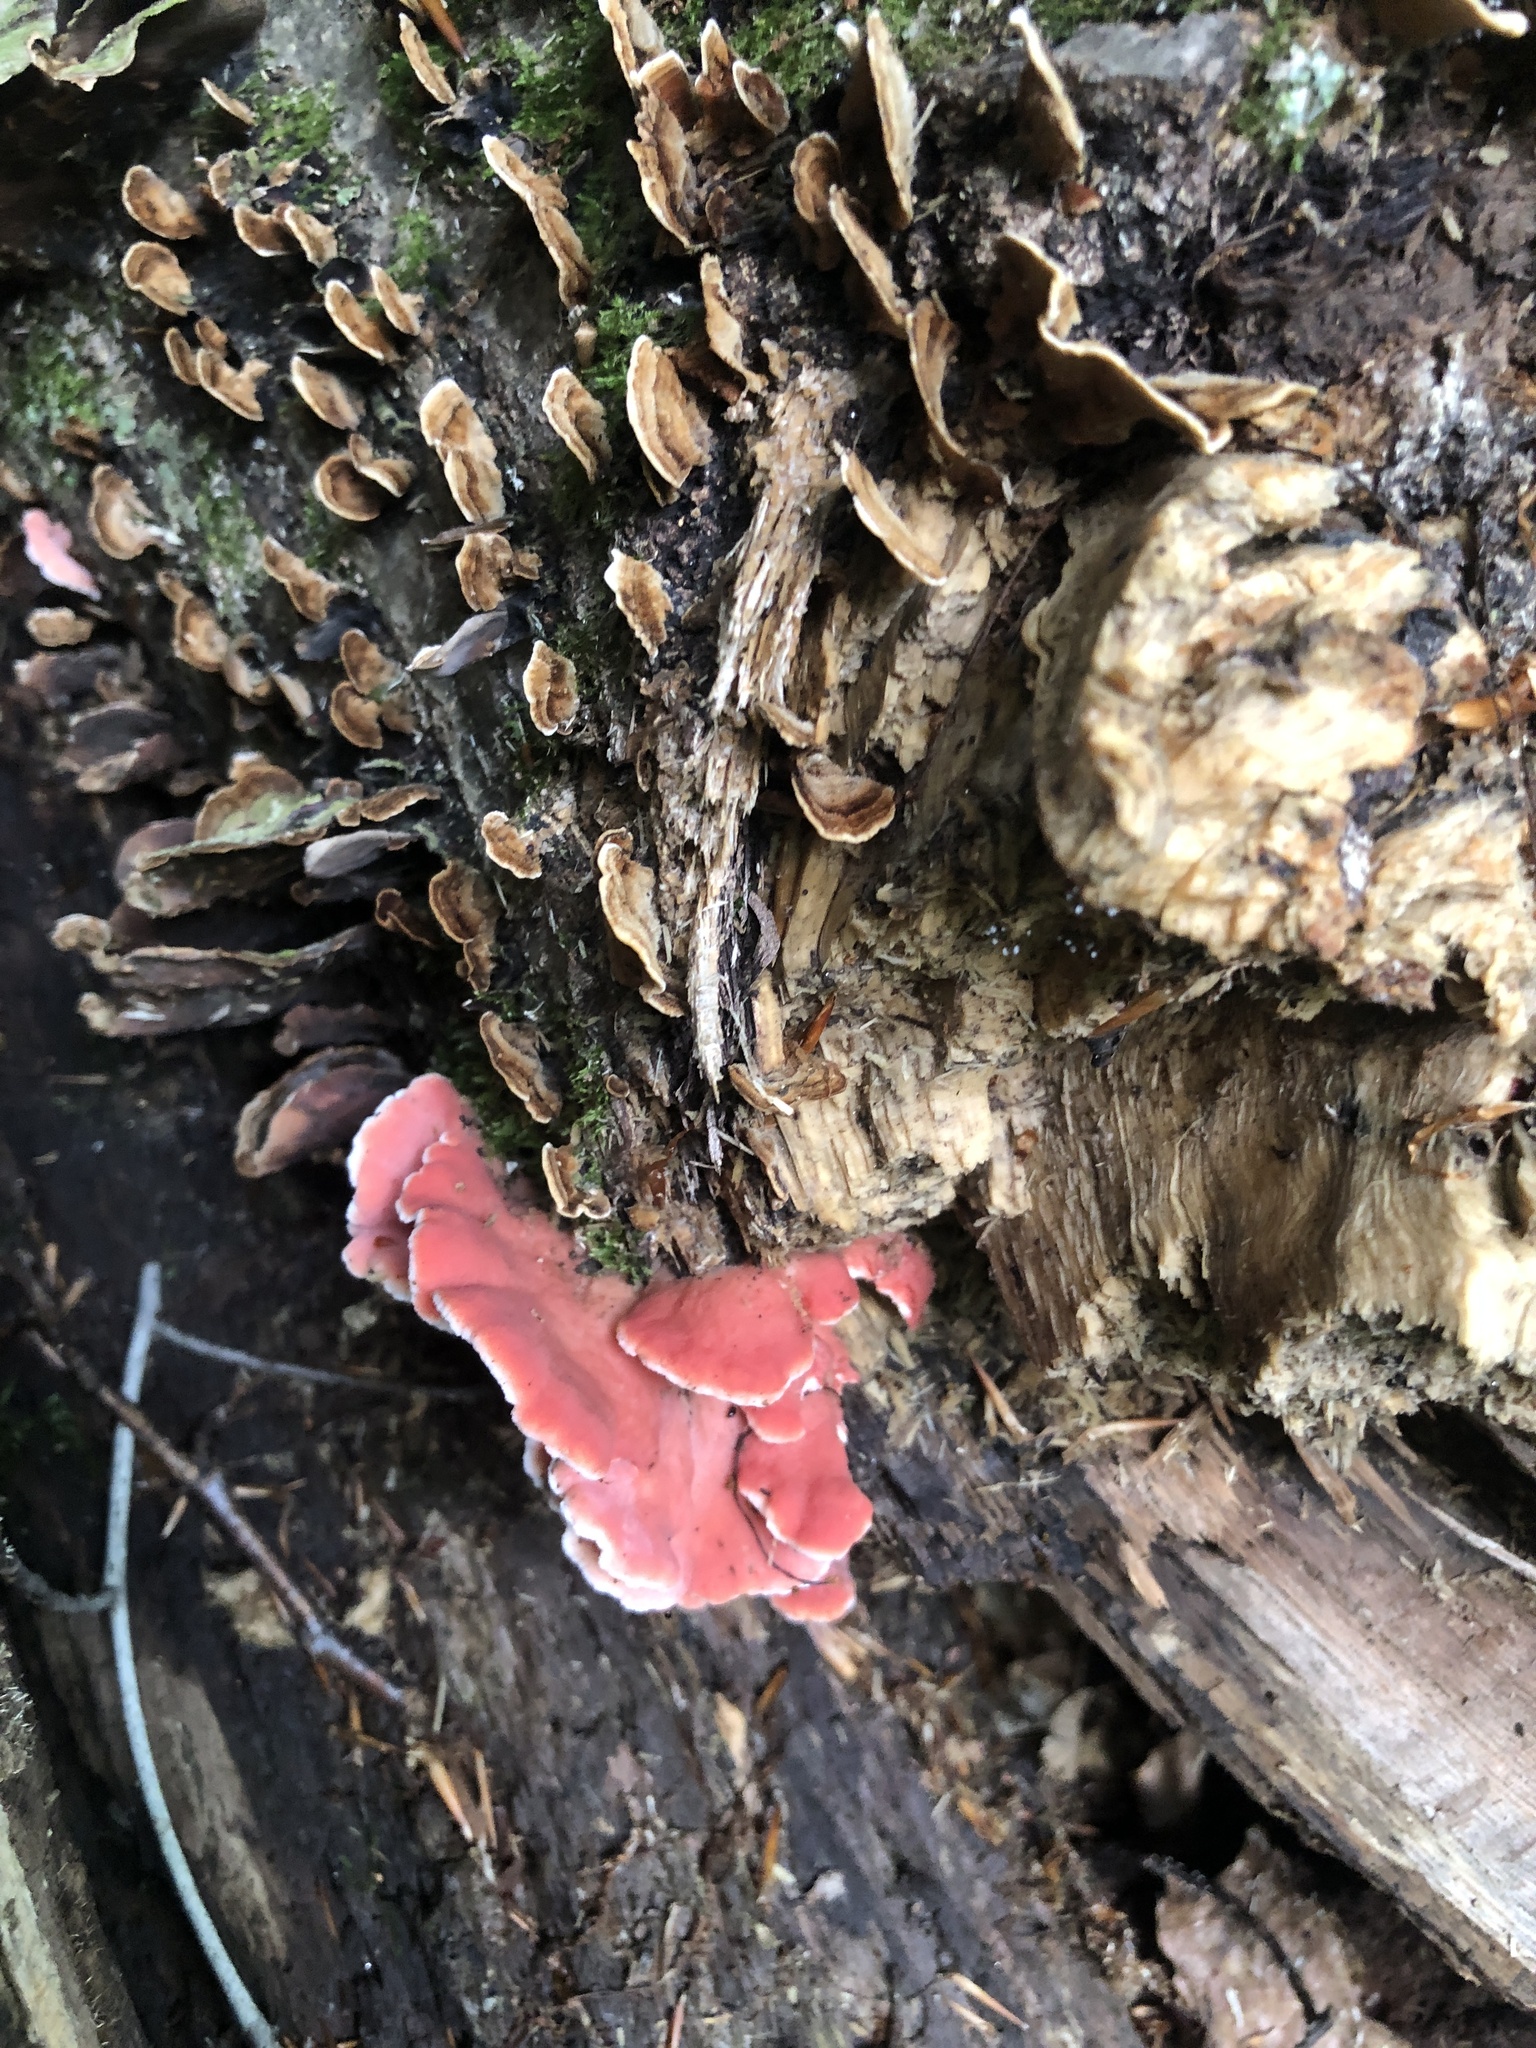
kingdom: Fungi
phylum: Basidiomycota
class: Agaricomycetes
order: Polyporales
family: Irpicaceae
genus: Byssomerulius
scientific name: Byssomerulius incarnatus
